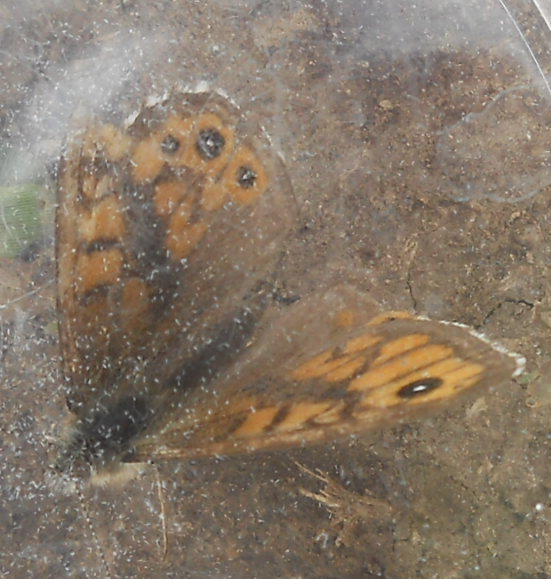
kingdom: Animalia
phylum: Arthropoda
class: Insecta
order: Lepidoptera
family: Nymphalidae
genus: Pararge
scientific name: Pararge Lasiommata megera
